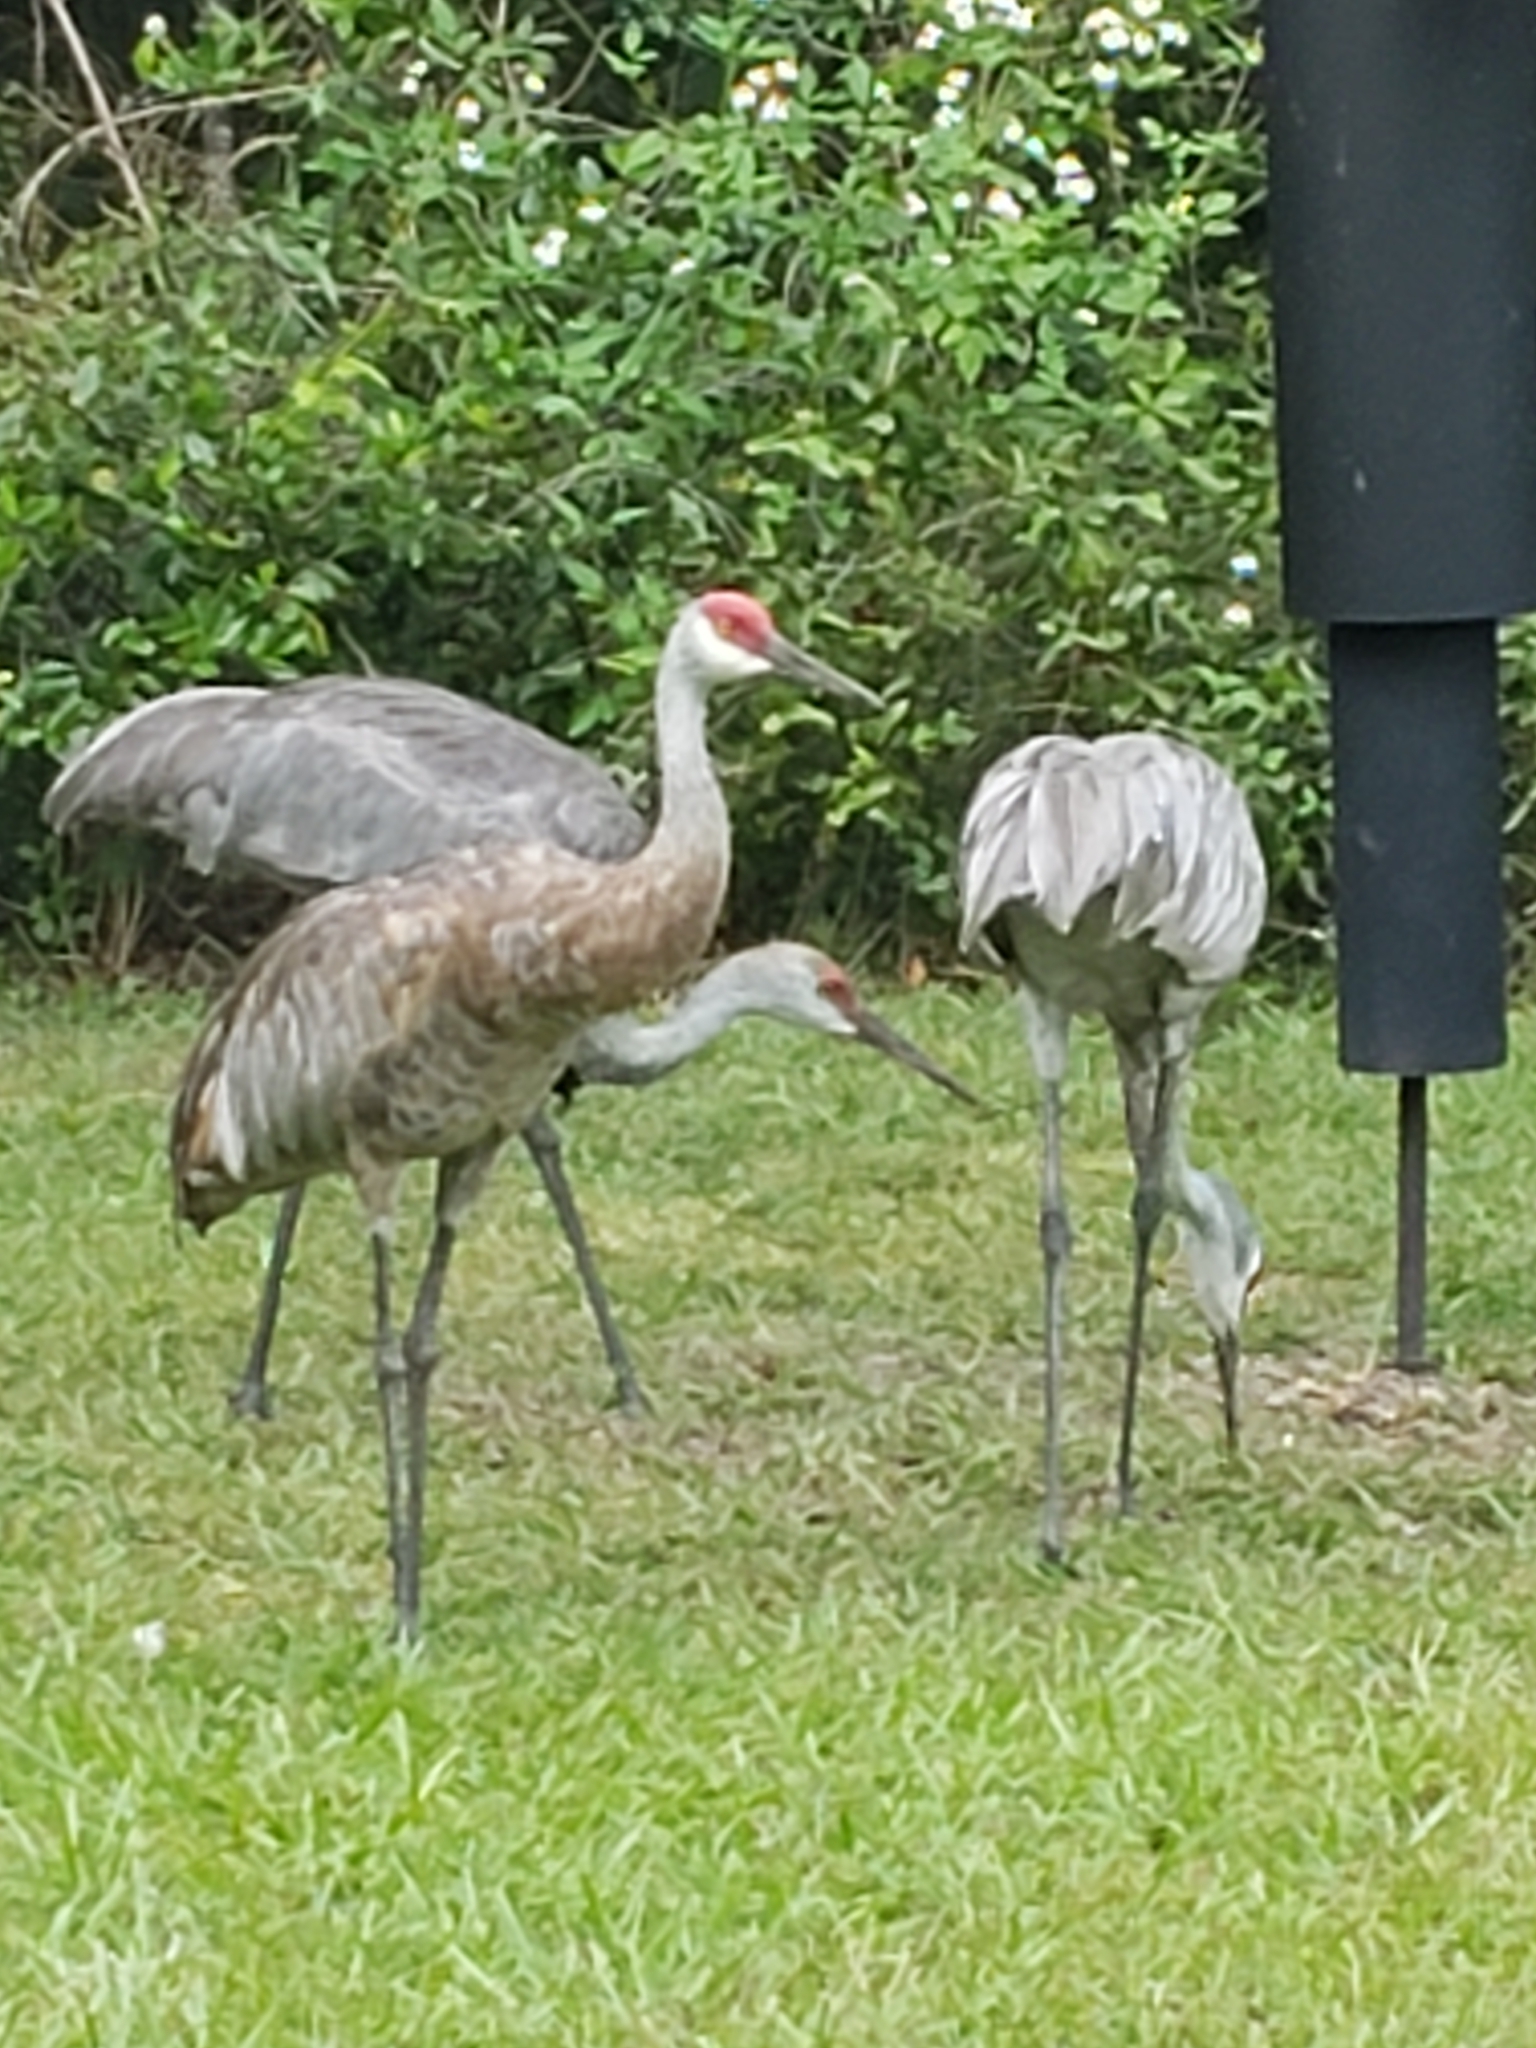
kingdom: Animalia
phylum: Chordata
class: Aves
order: Gruiformes
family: Gruidae
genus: Grus
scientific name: Grus canadensis
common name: Sandhill crane
